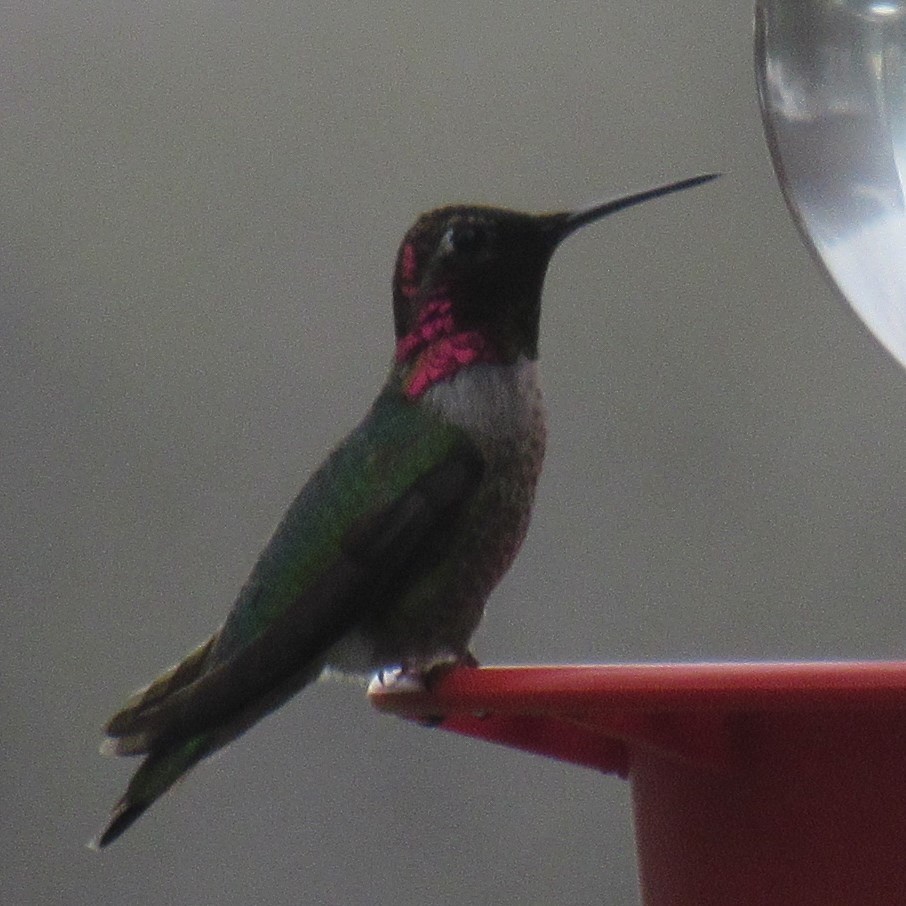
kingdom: Animalia
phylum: Chordata
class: Aves
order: Apodiformes
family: Trochilidae
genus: Calypte
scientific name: Calypte anna
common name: Anna's hummingbird
